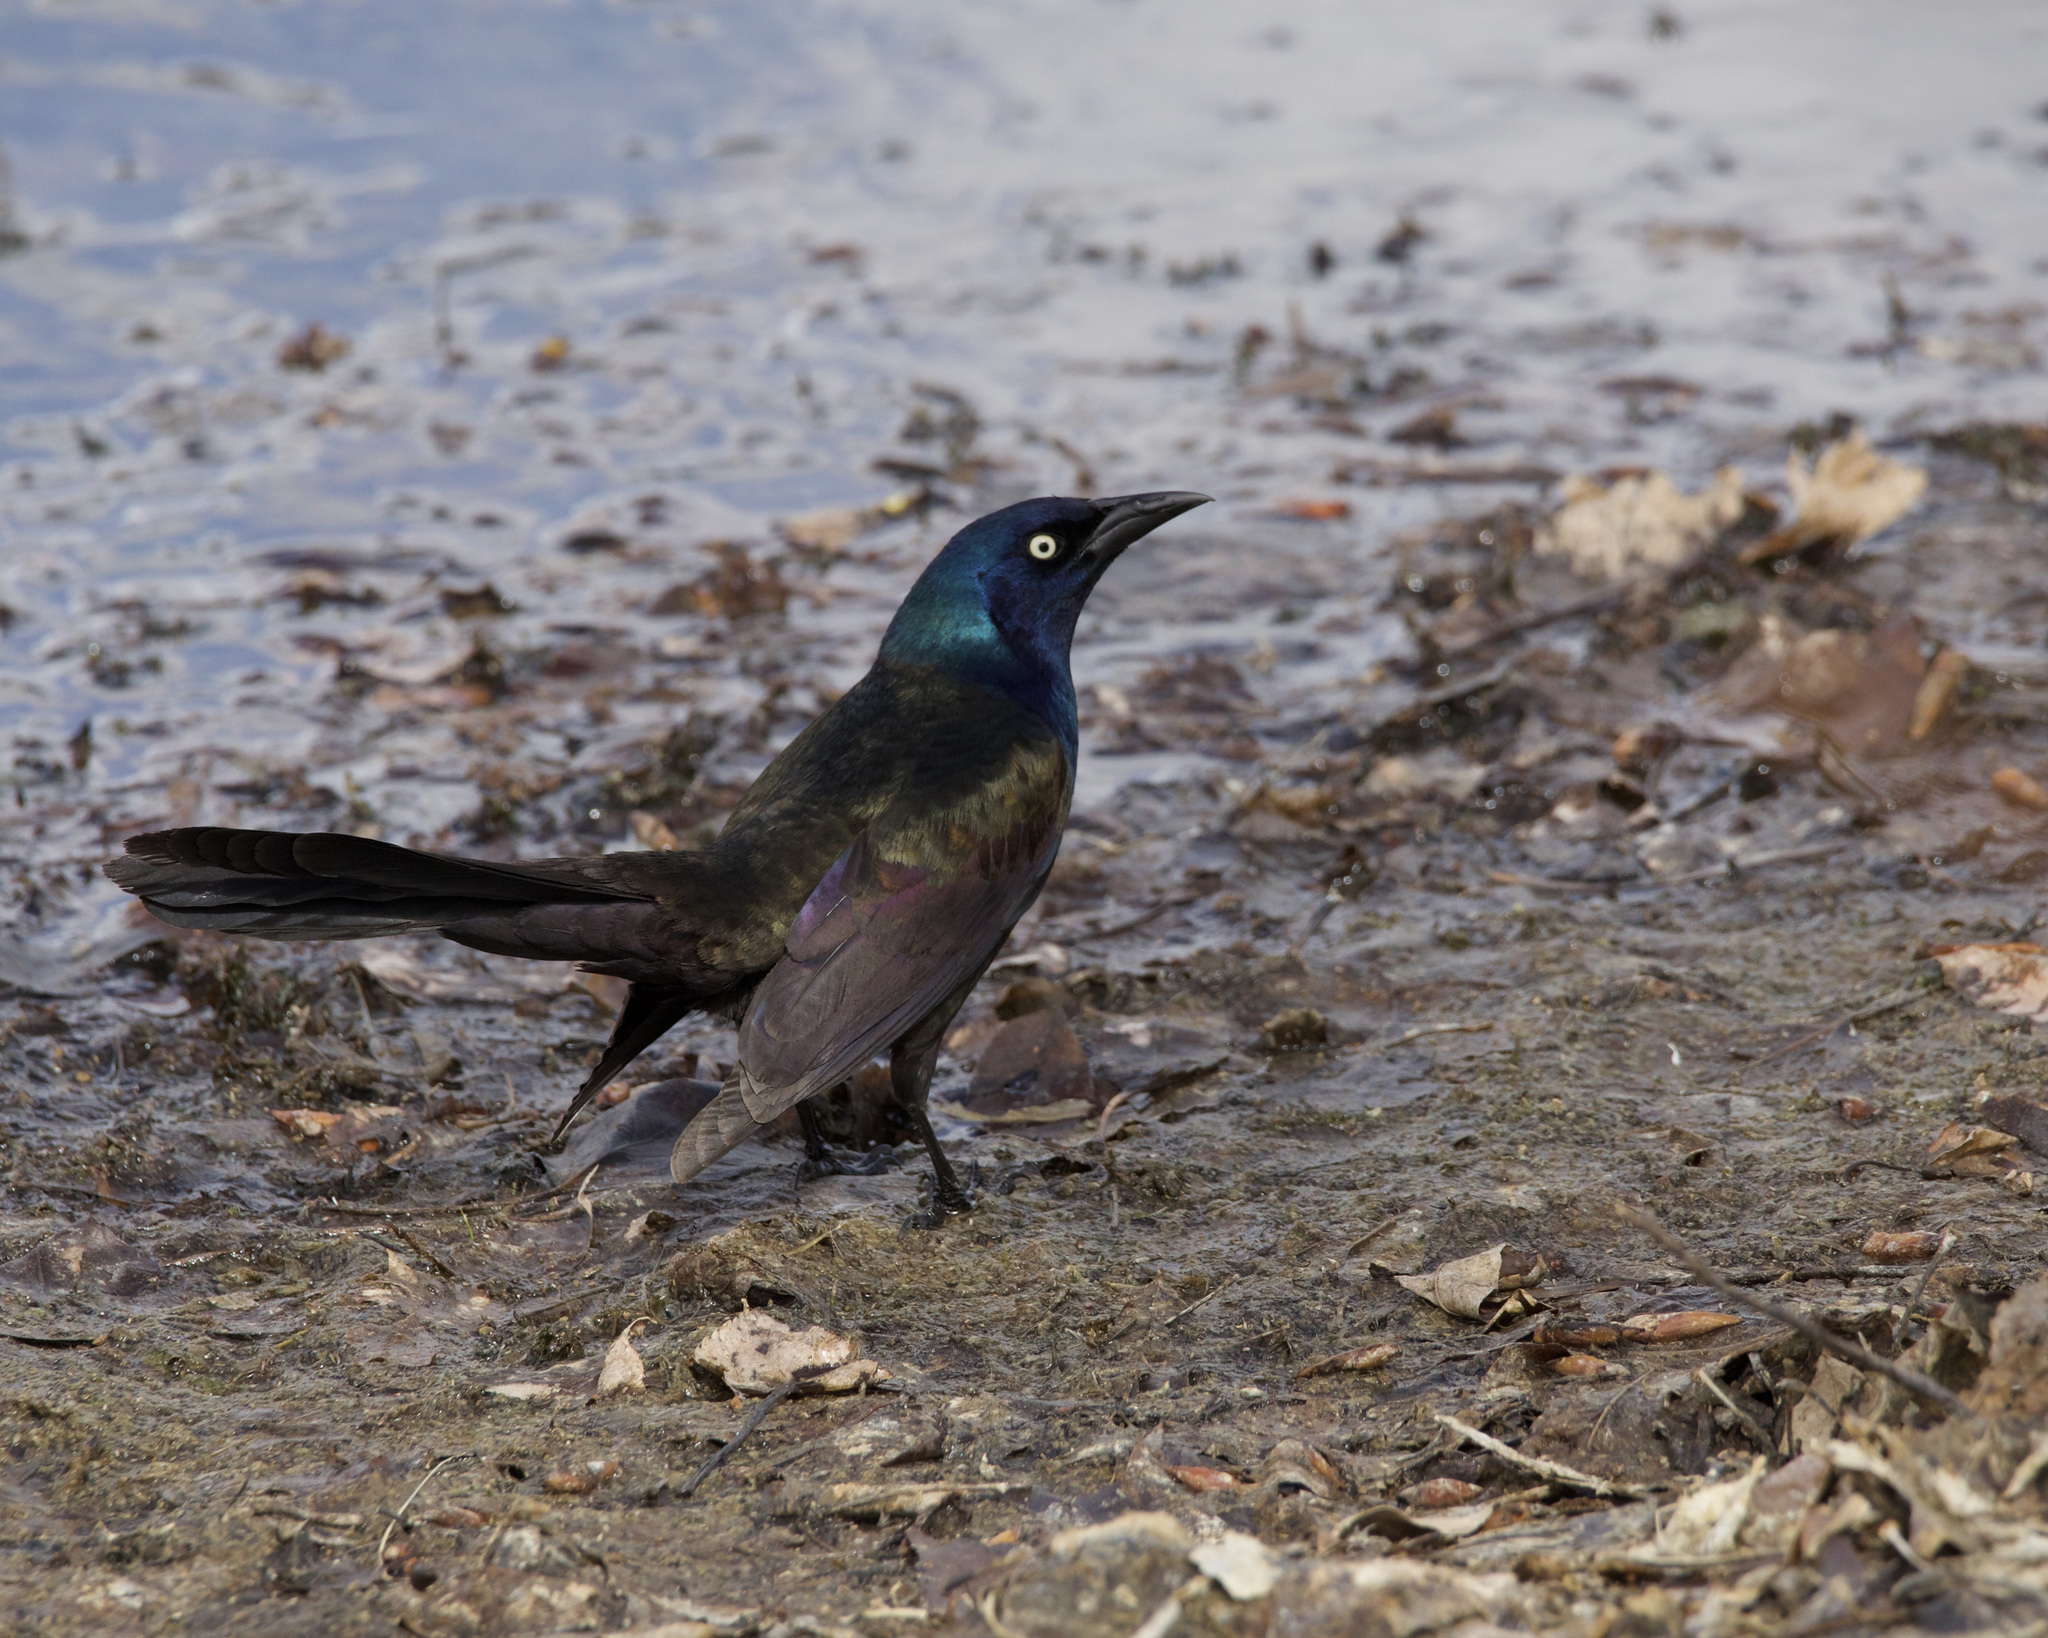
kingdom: Animalia
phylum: Chordata
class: Aves
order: Passeriformes
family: Icteridae
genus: Quiscalus
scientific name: Quiscalus quiscula
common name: Common grackle
